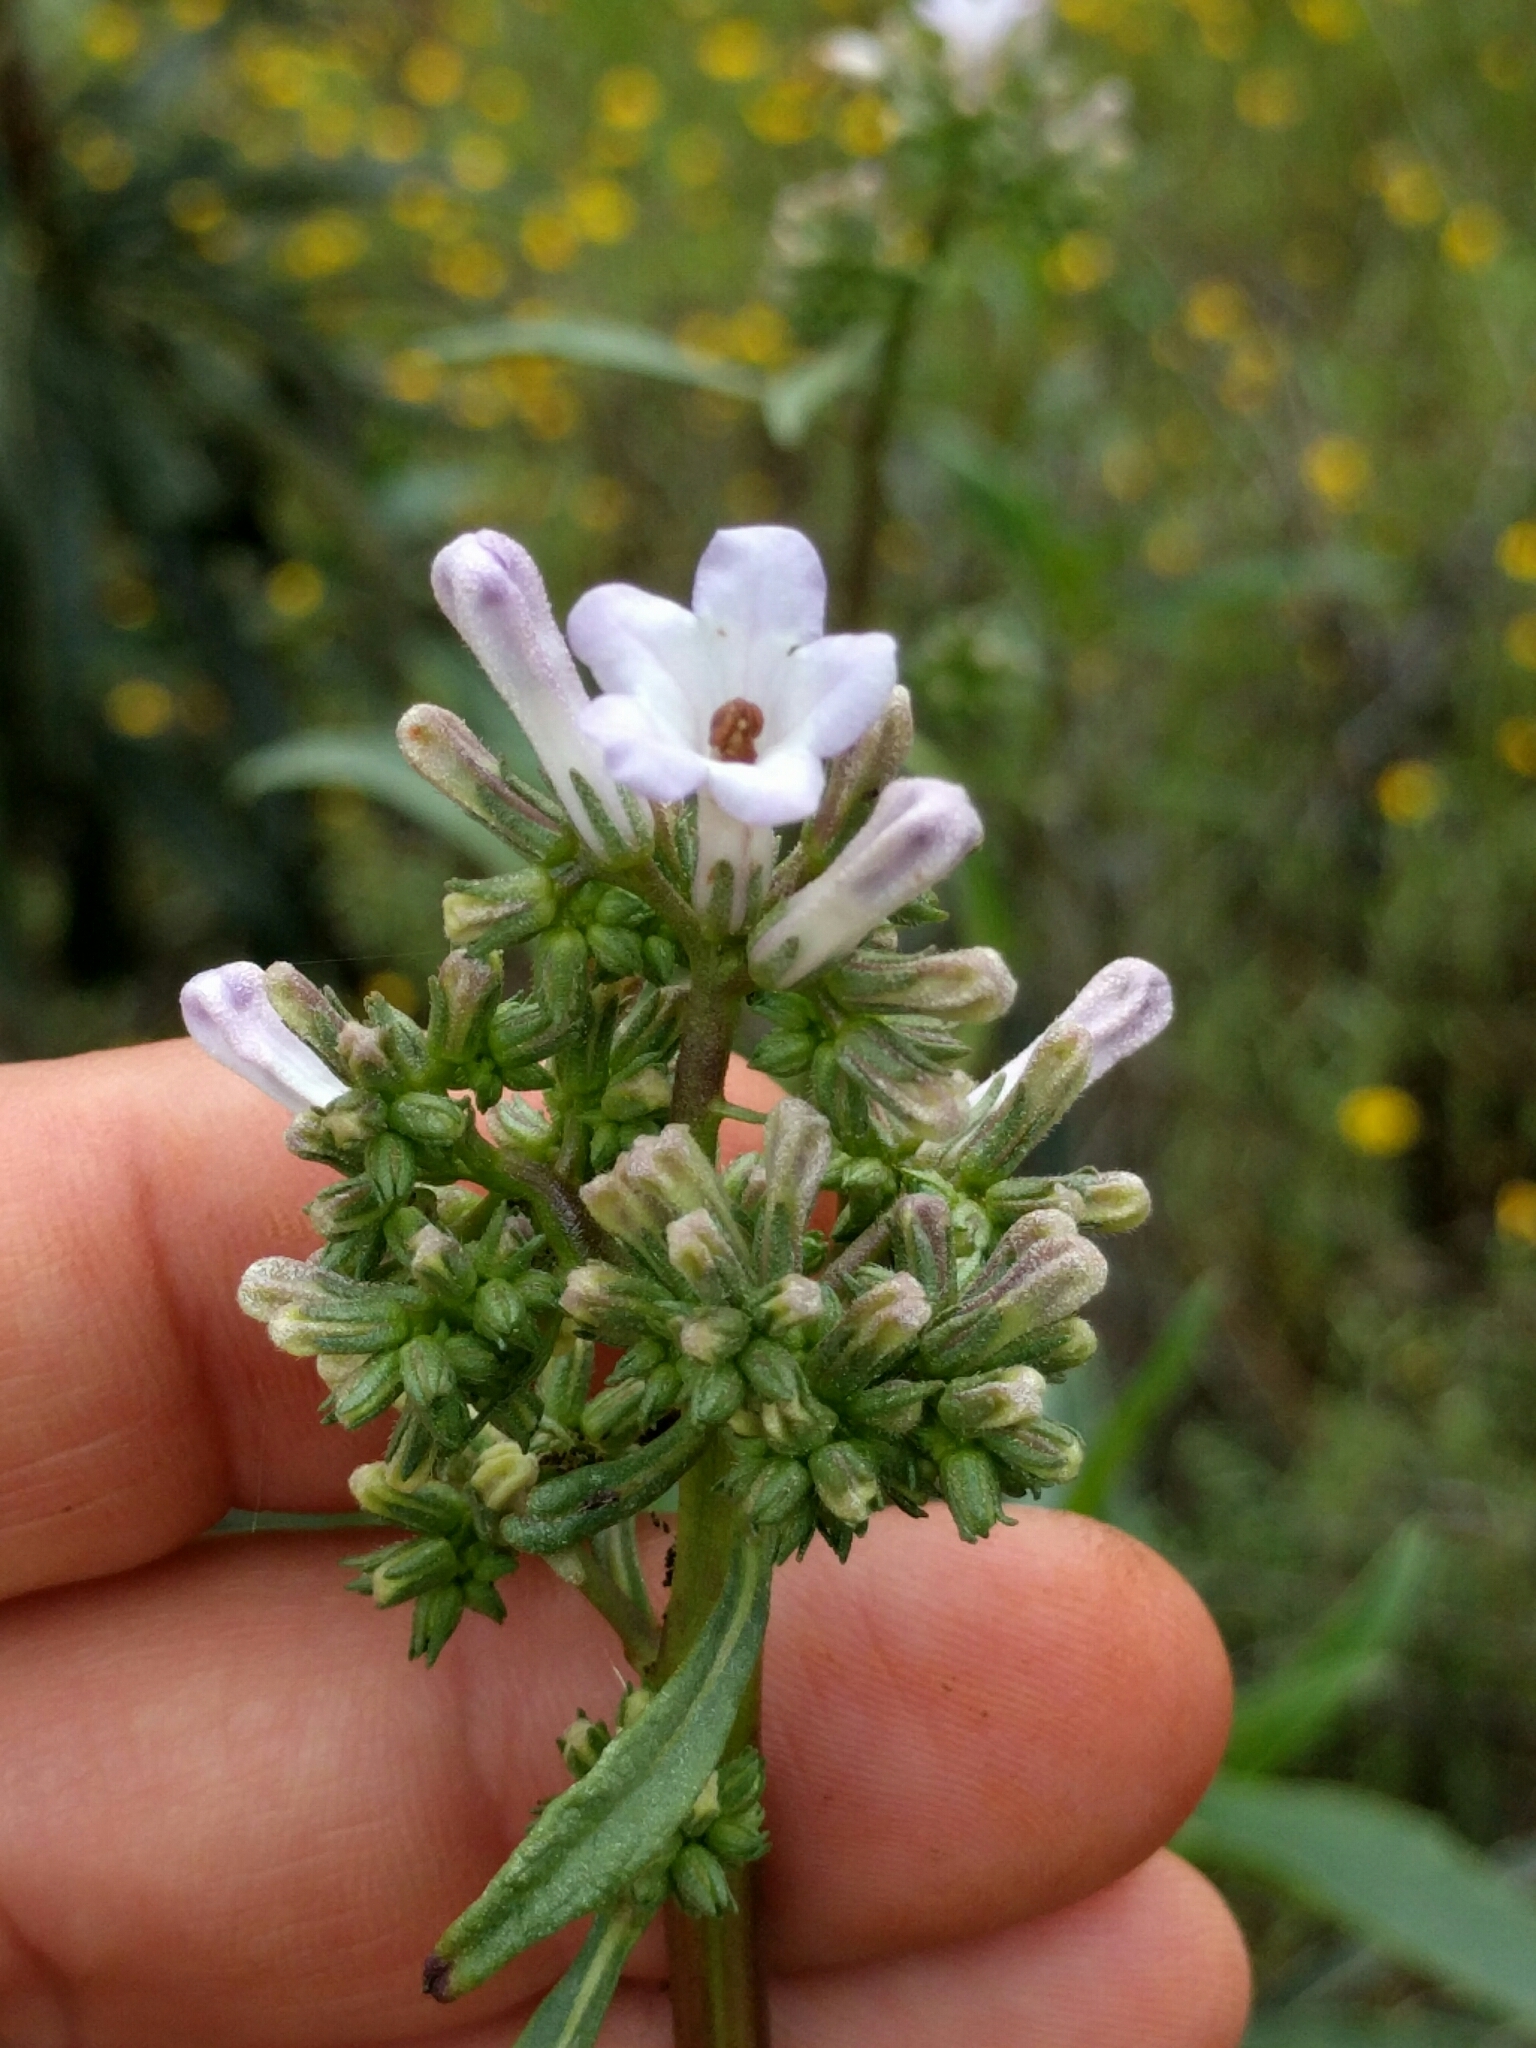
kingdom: Plantae
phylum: Tracheophyta
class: Magnoliopsida
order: Boraginales
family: Namaceae
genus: Eriodictyon
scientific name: Eriodictyon californicum
